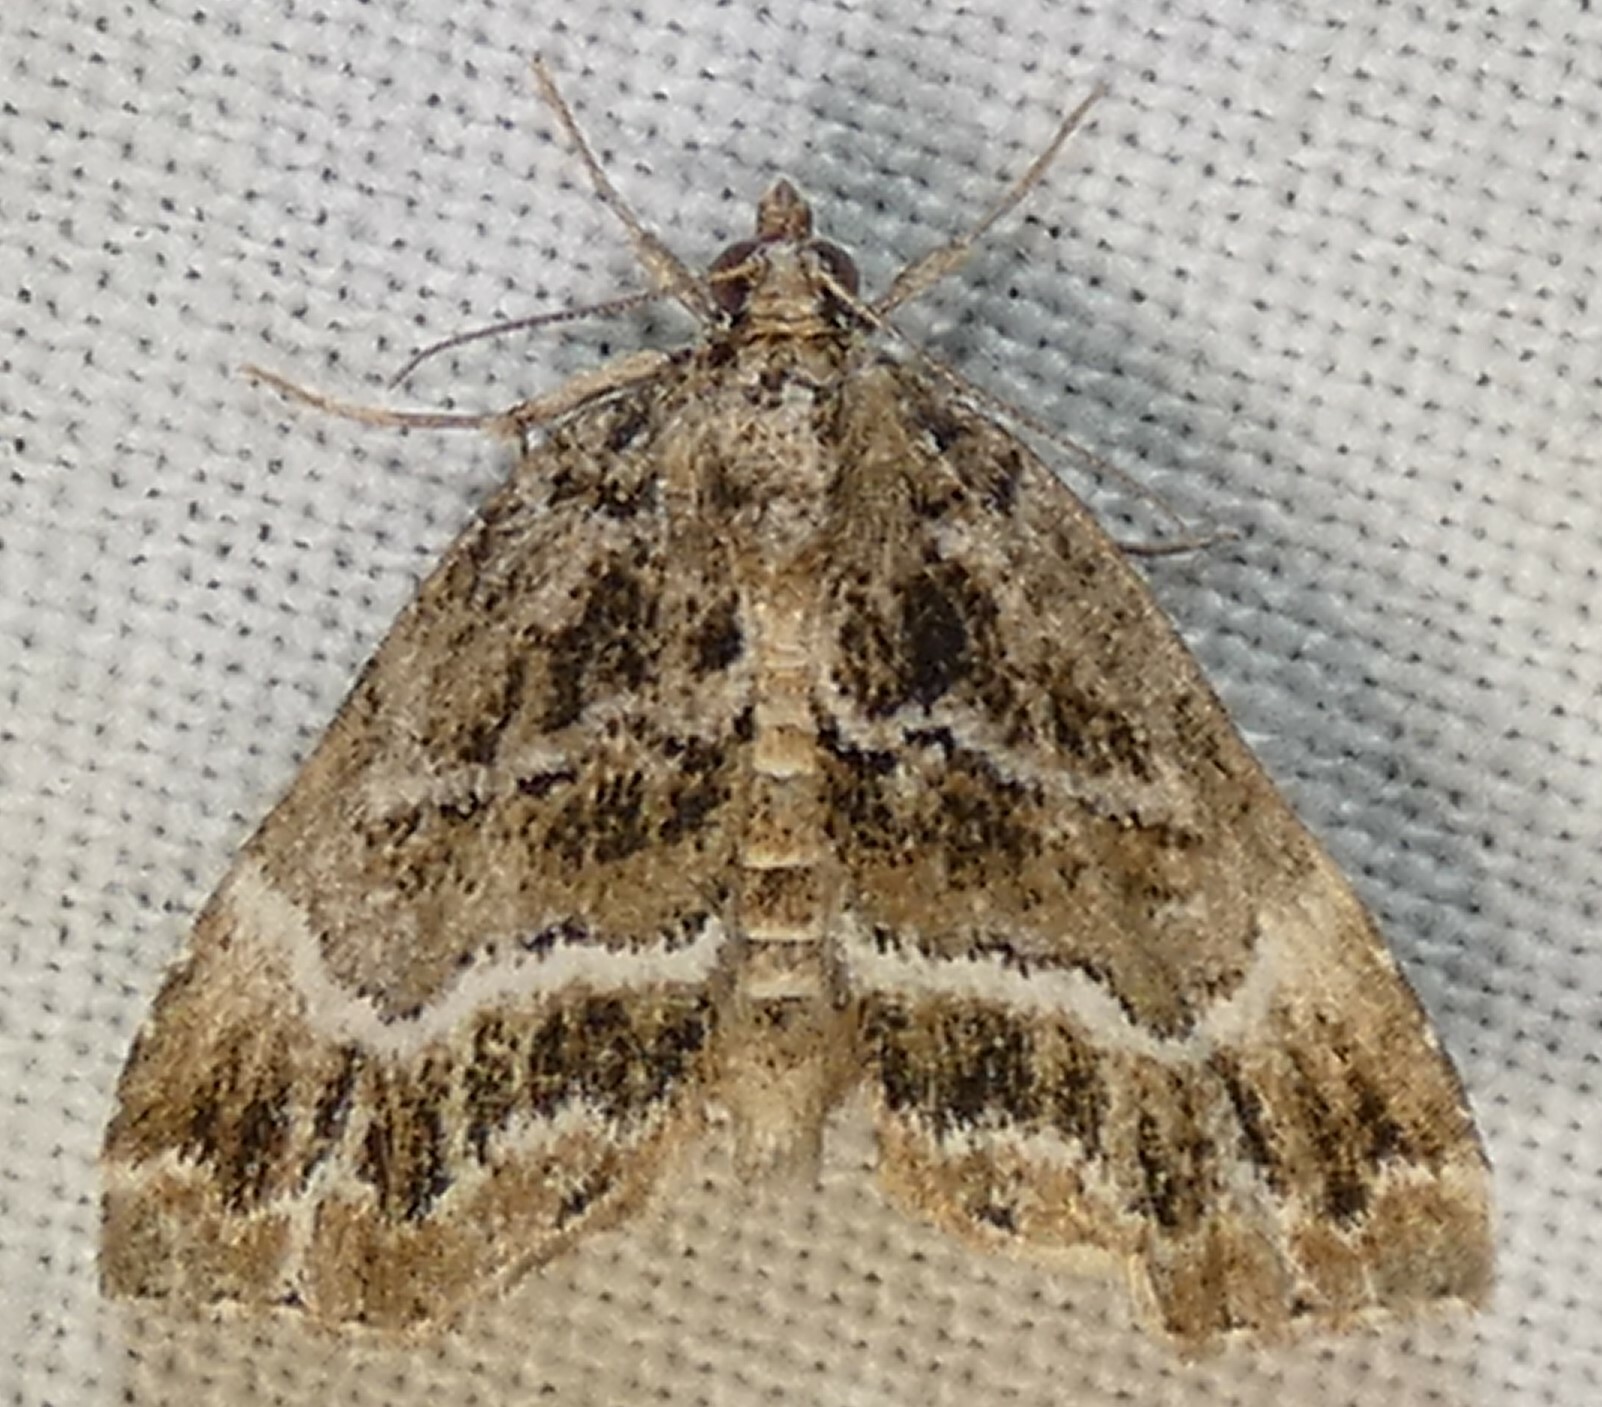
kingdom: Animalia
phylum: Arthropoda
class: Insecta
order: Lepidoptera
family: Erebidae
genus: Cutina
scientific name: Cutina arcuata
